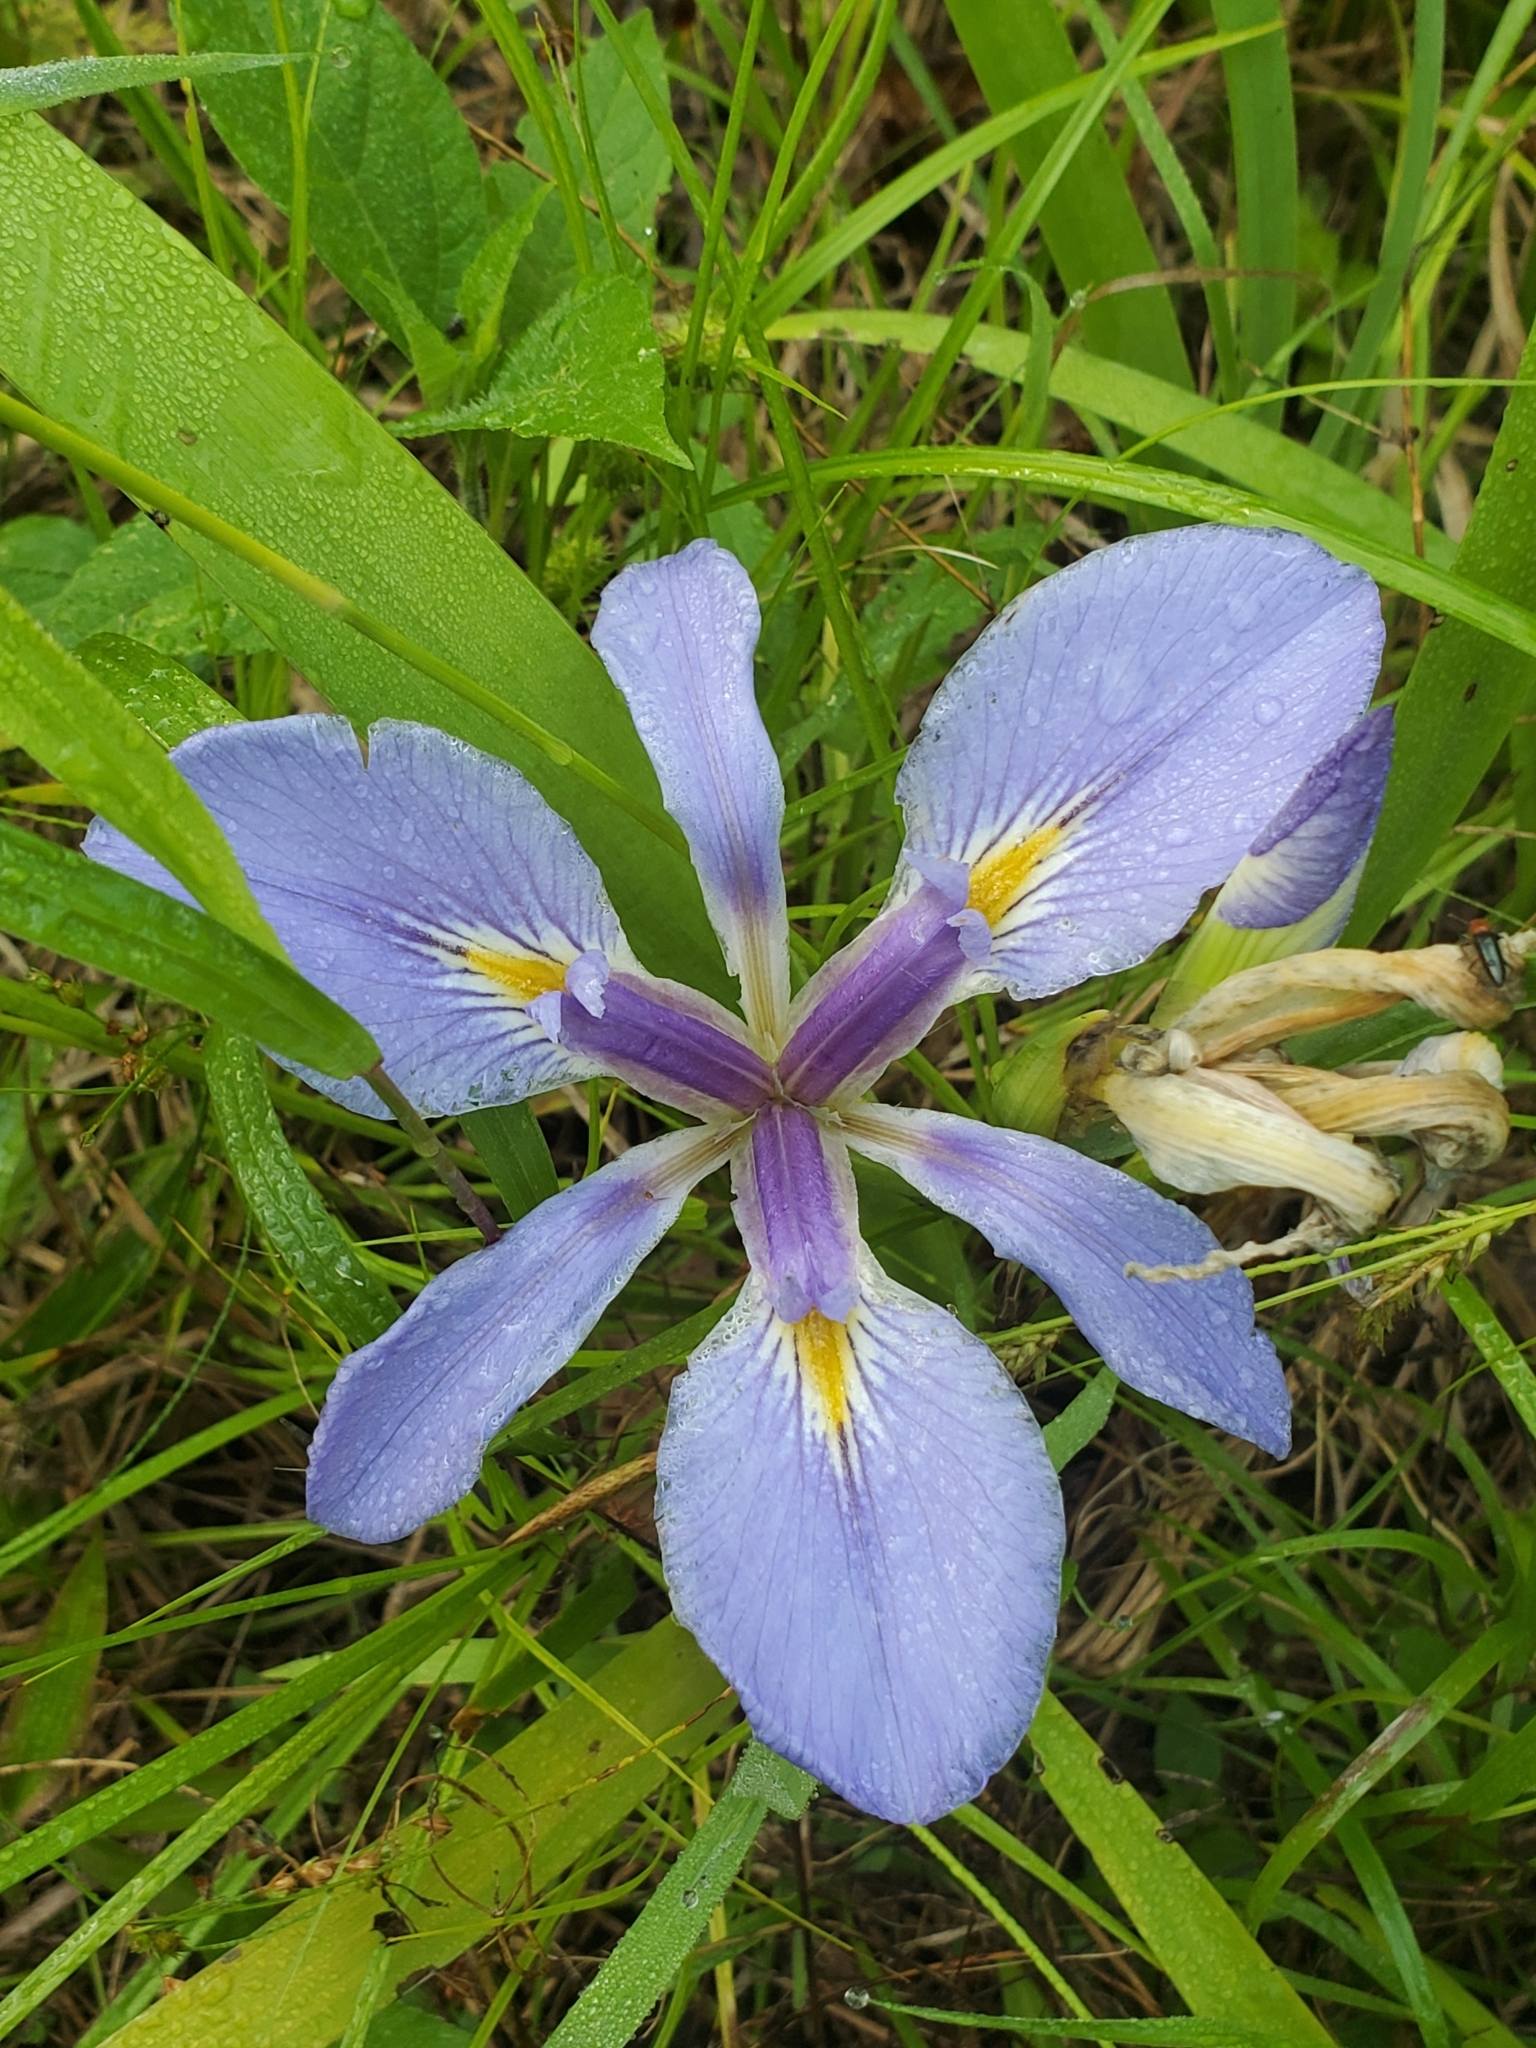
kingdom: Plantae
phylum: Tracheophyta
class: Liliopsida
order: Asparagales
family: Iridaceae
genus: Iris
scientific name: Iris brevicaulis
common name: Zigzag iris
